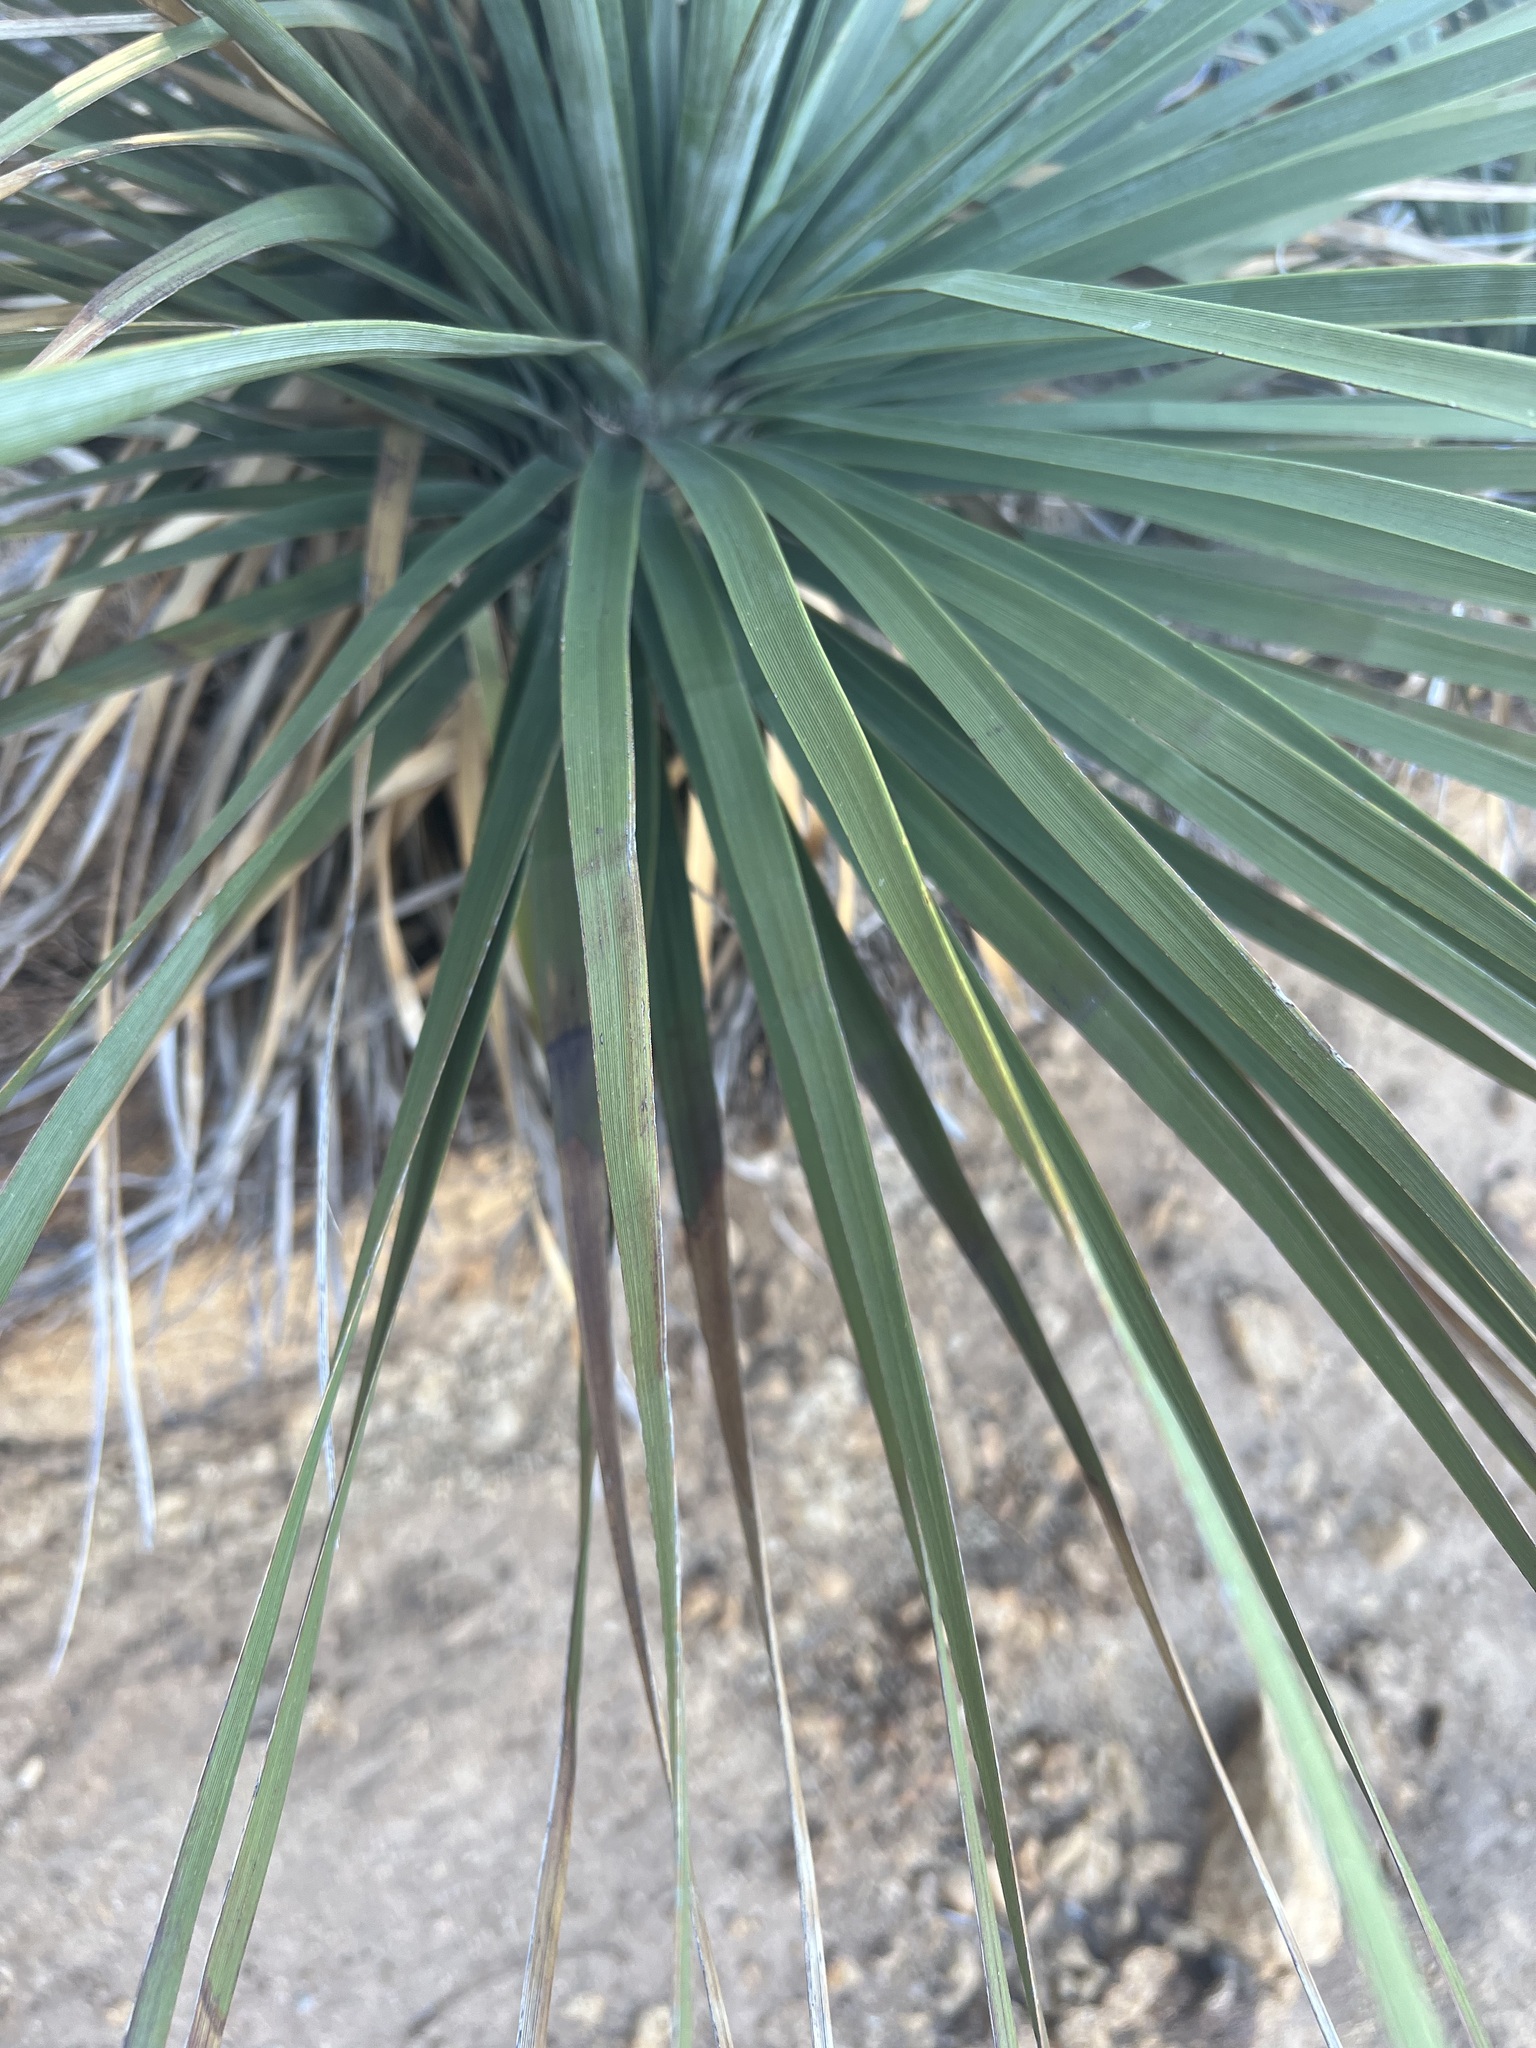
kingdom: Plantae
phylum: Tracheophyta
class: Liliopsida
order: Asparagales
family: Asparagaceae
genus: Nolina
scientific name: Nolina cismontana
